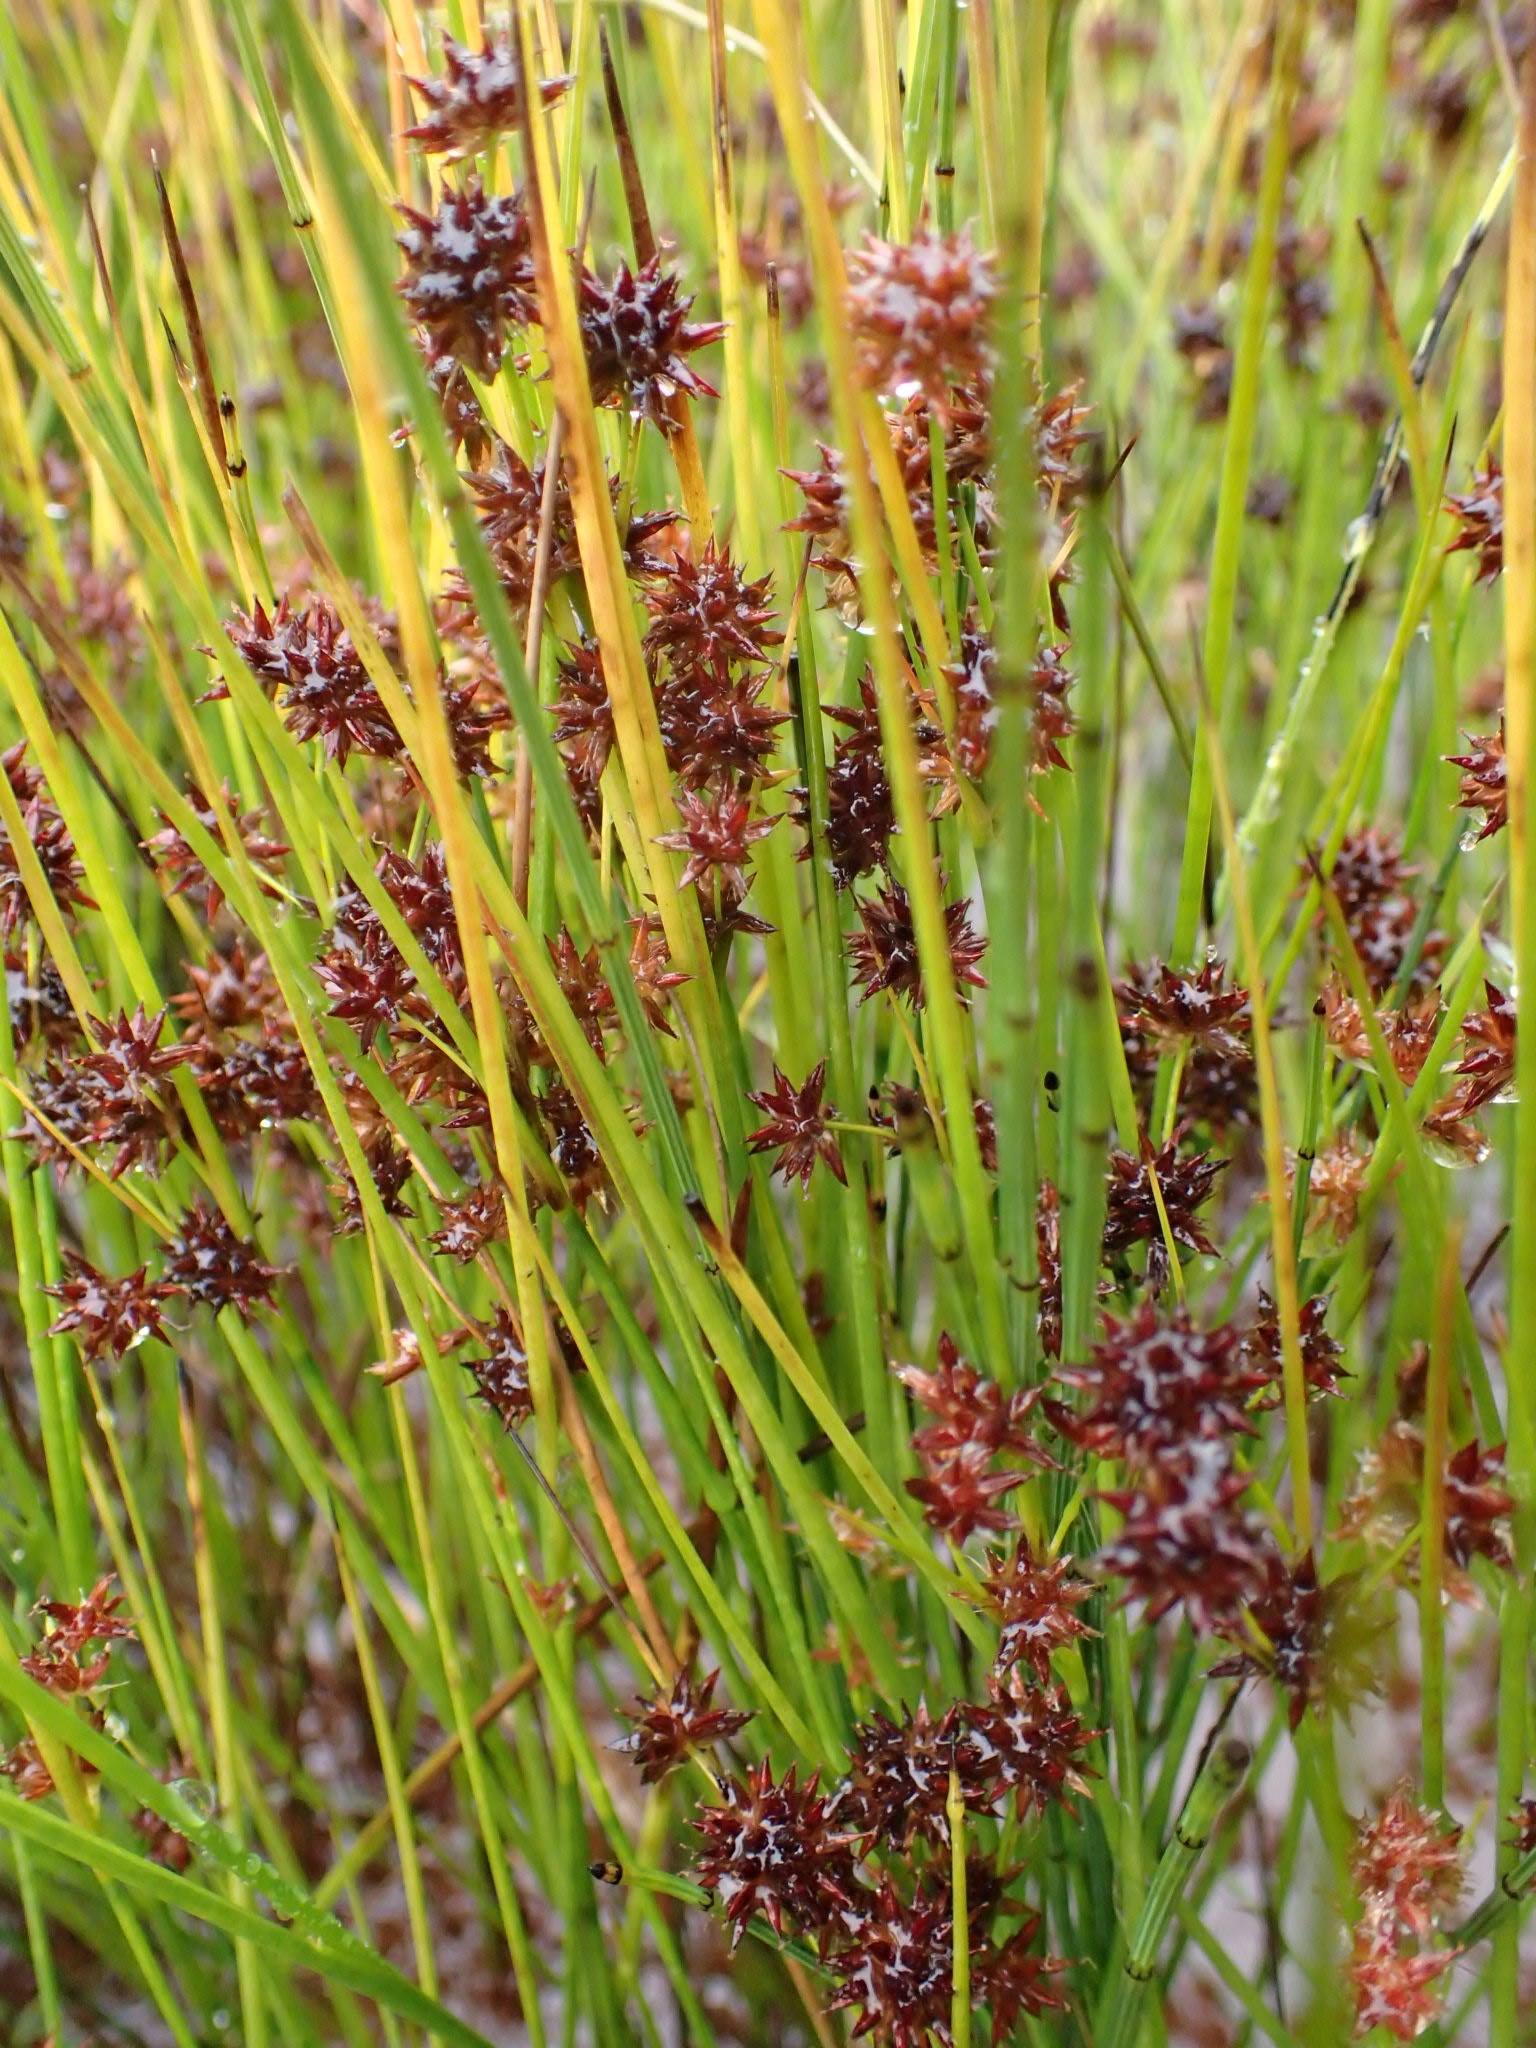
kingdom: Plantae
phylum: Tracheophyta
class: Liliopsida
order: Poales
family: Juncaceae
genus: Juncus
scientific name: Juncus nodosus
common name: Knotted rush
